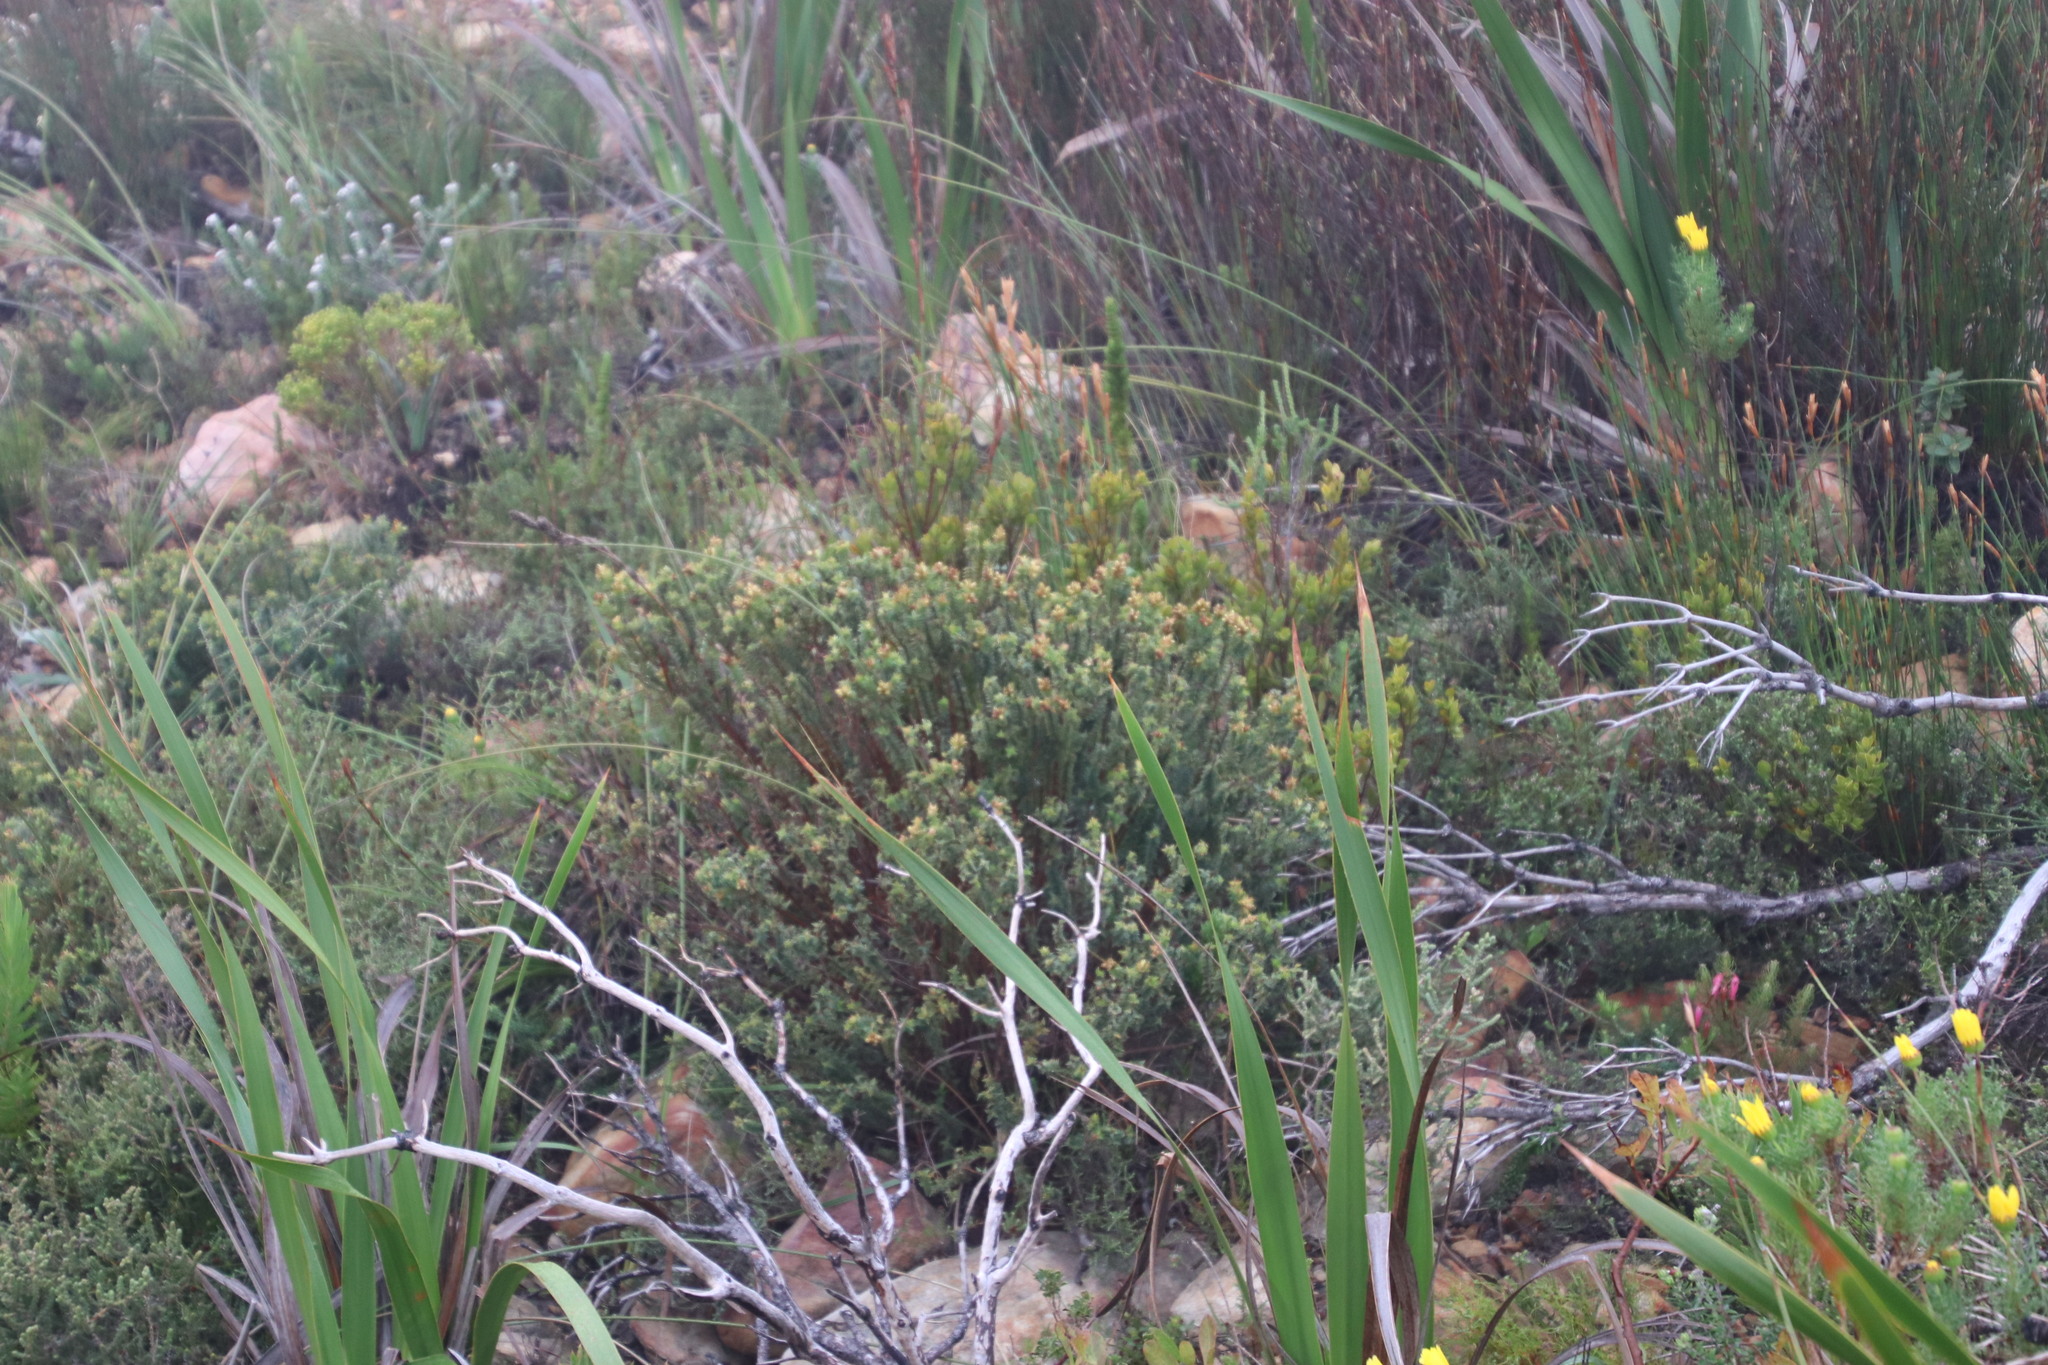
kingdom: Plantae
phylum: Tracheophyta
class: Magnoliopsida
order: Myrtales
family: Penaeaceae
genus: Penaea
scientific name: Penaea mucronata
